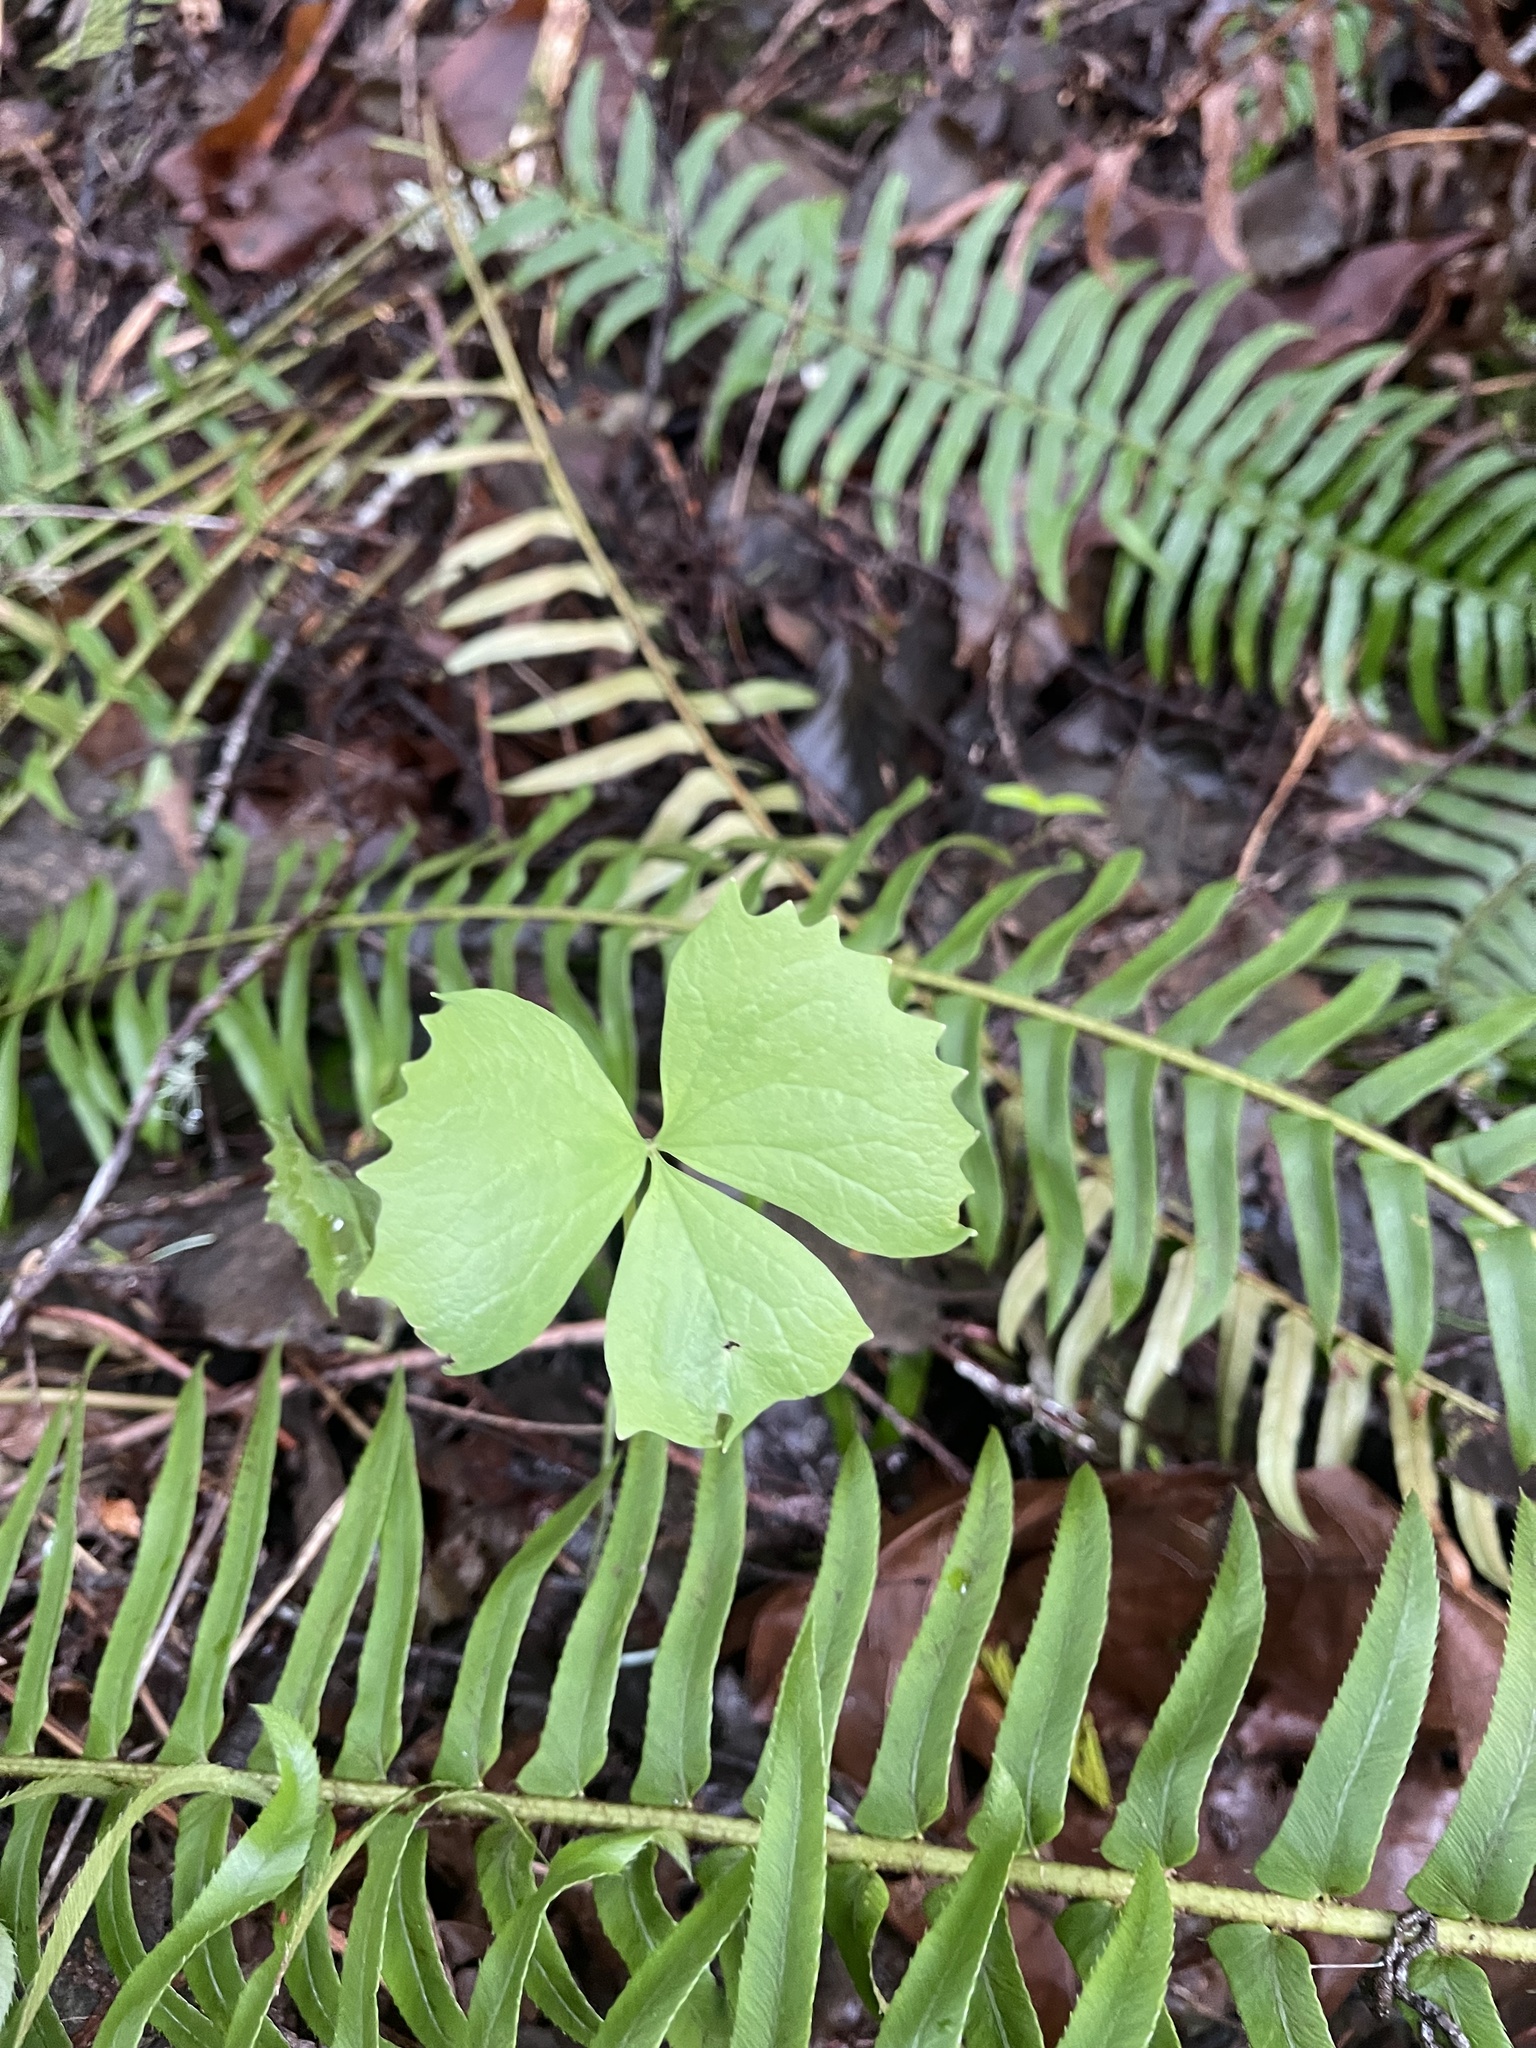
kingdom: Plantae
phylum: Tracheophyta
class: Magnoliopsida
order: Ranunculales
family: Berberidaceae
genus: Achlys
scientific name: Achlys triphylla
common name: Vanilla-leaf
